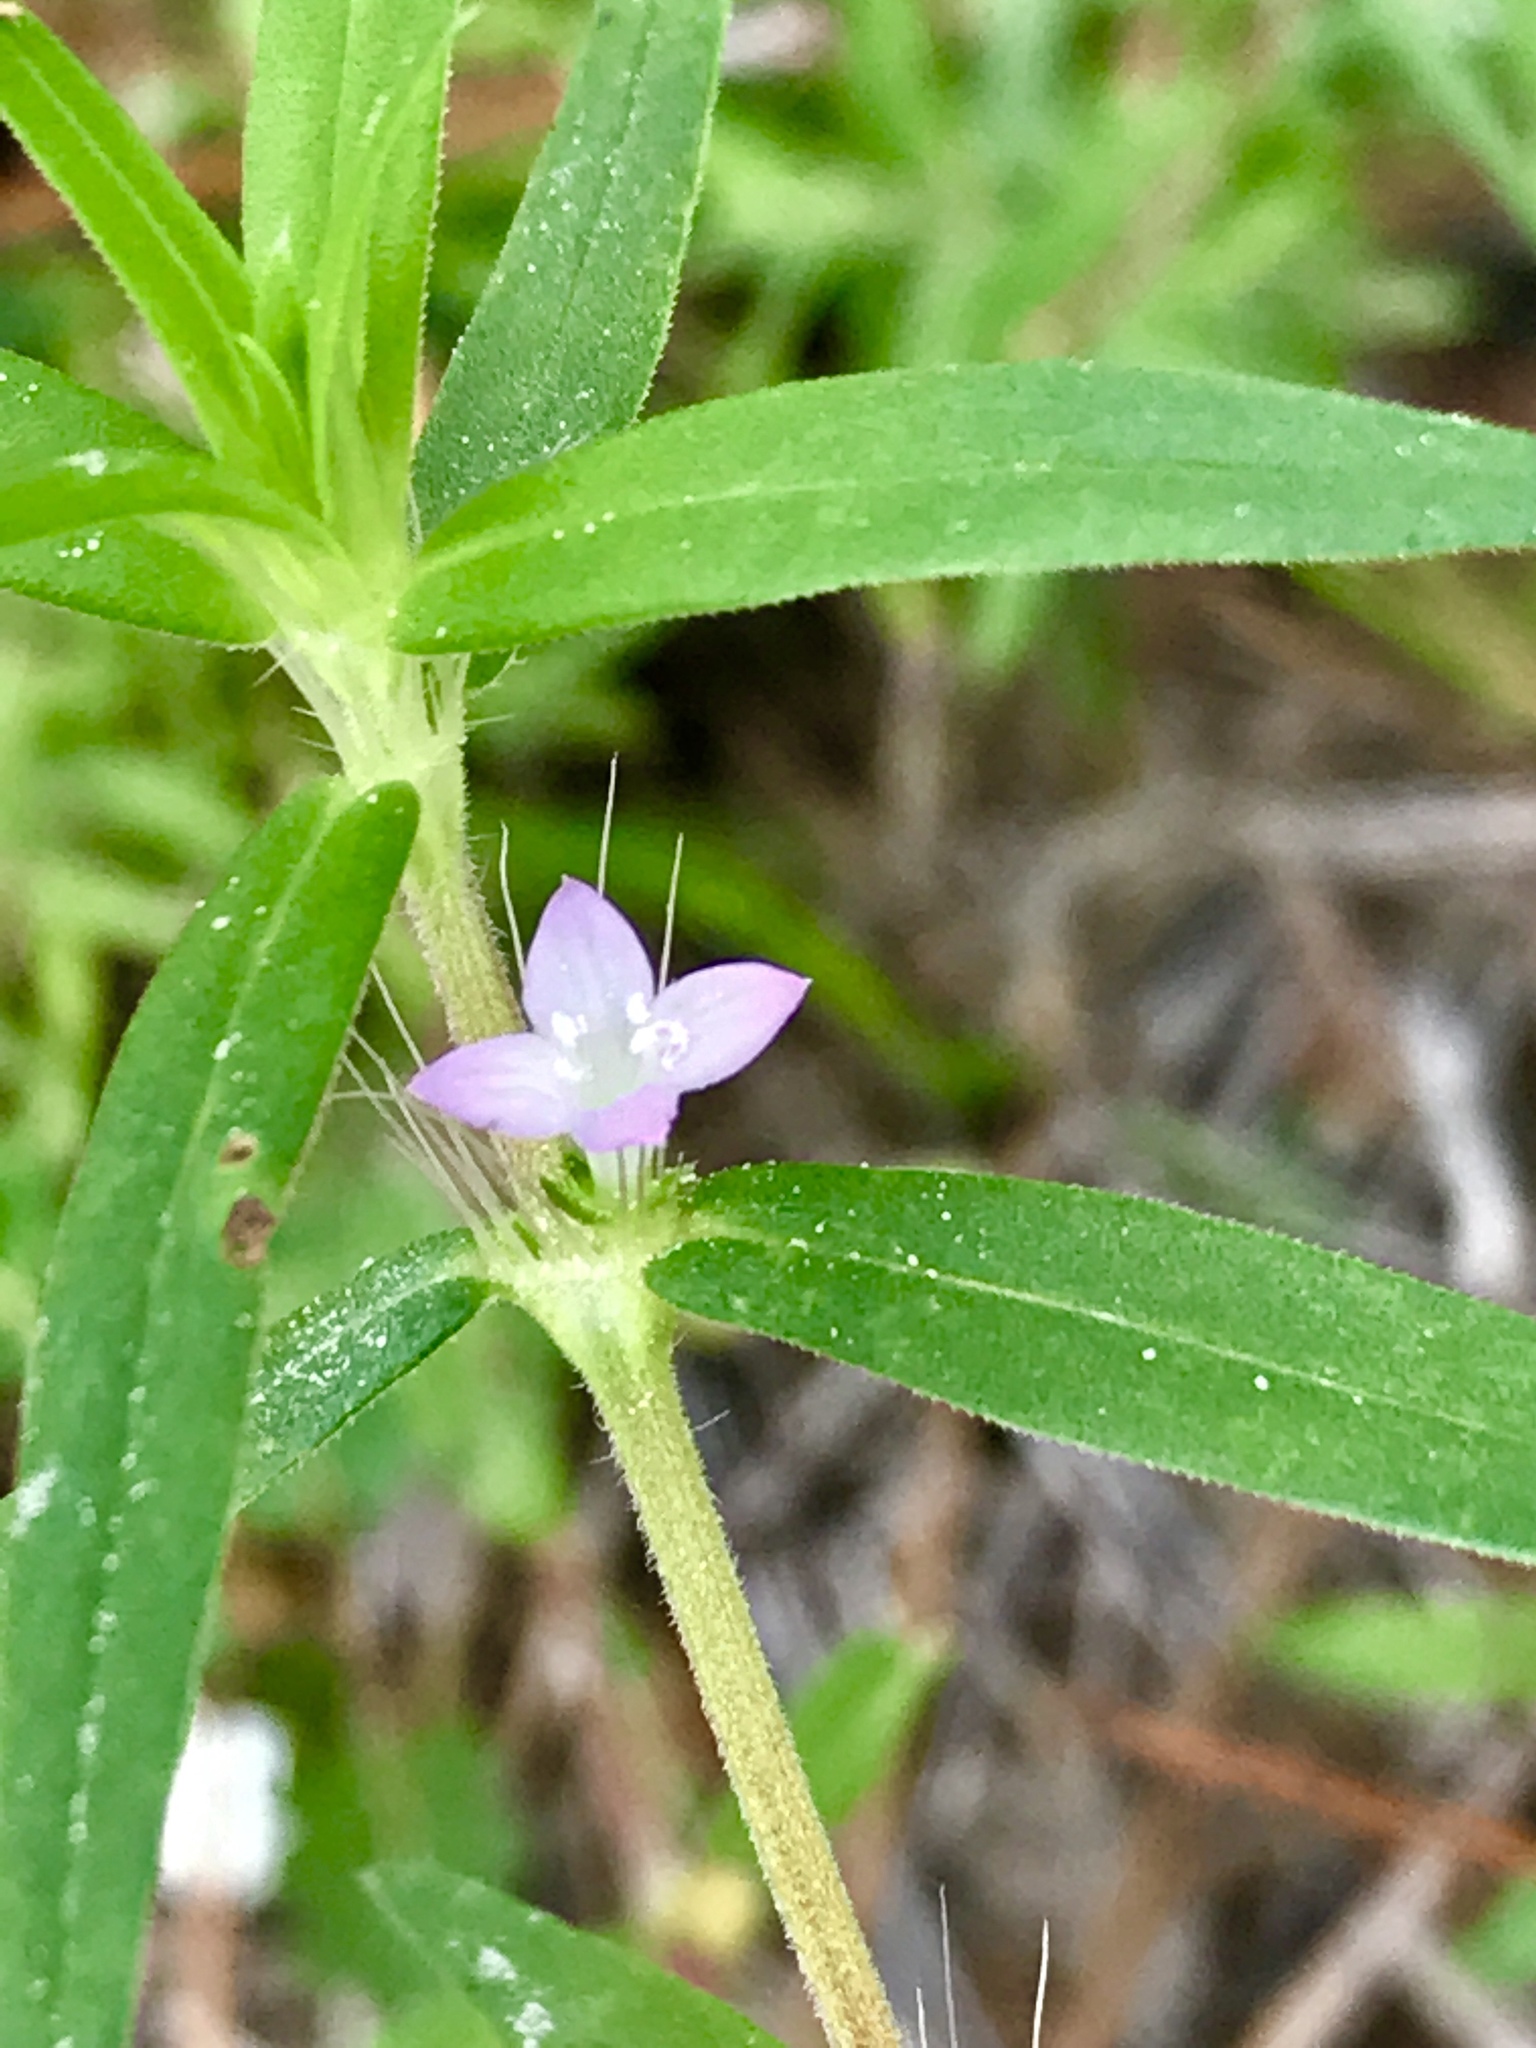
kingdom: Plantae
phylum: Tracheophyta
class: Magnoliopsida
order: Gentianales
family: Rubiaceae
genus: Hexasepalum
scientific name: Hexasepalum teres
